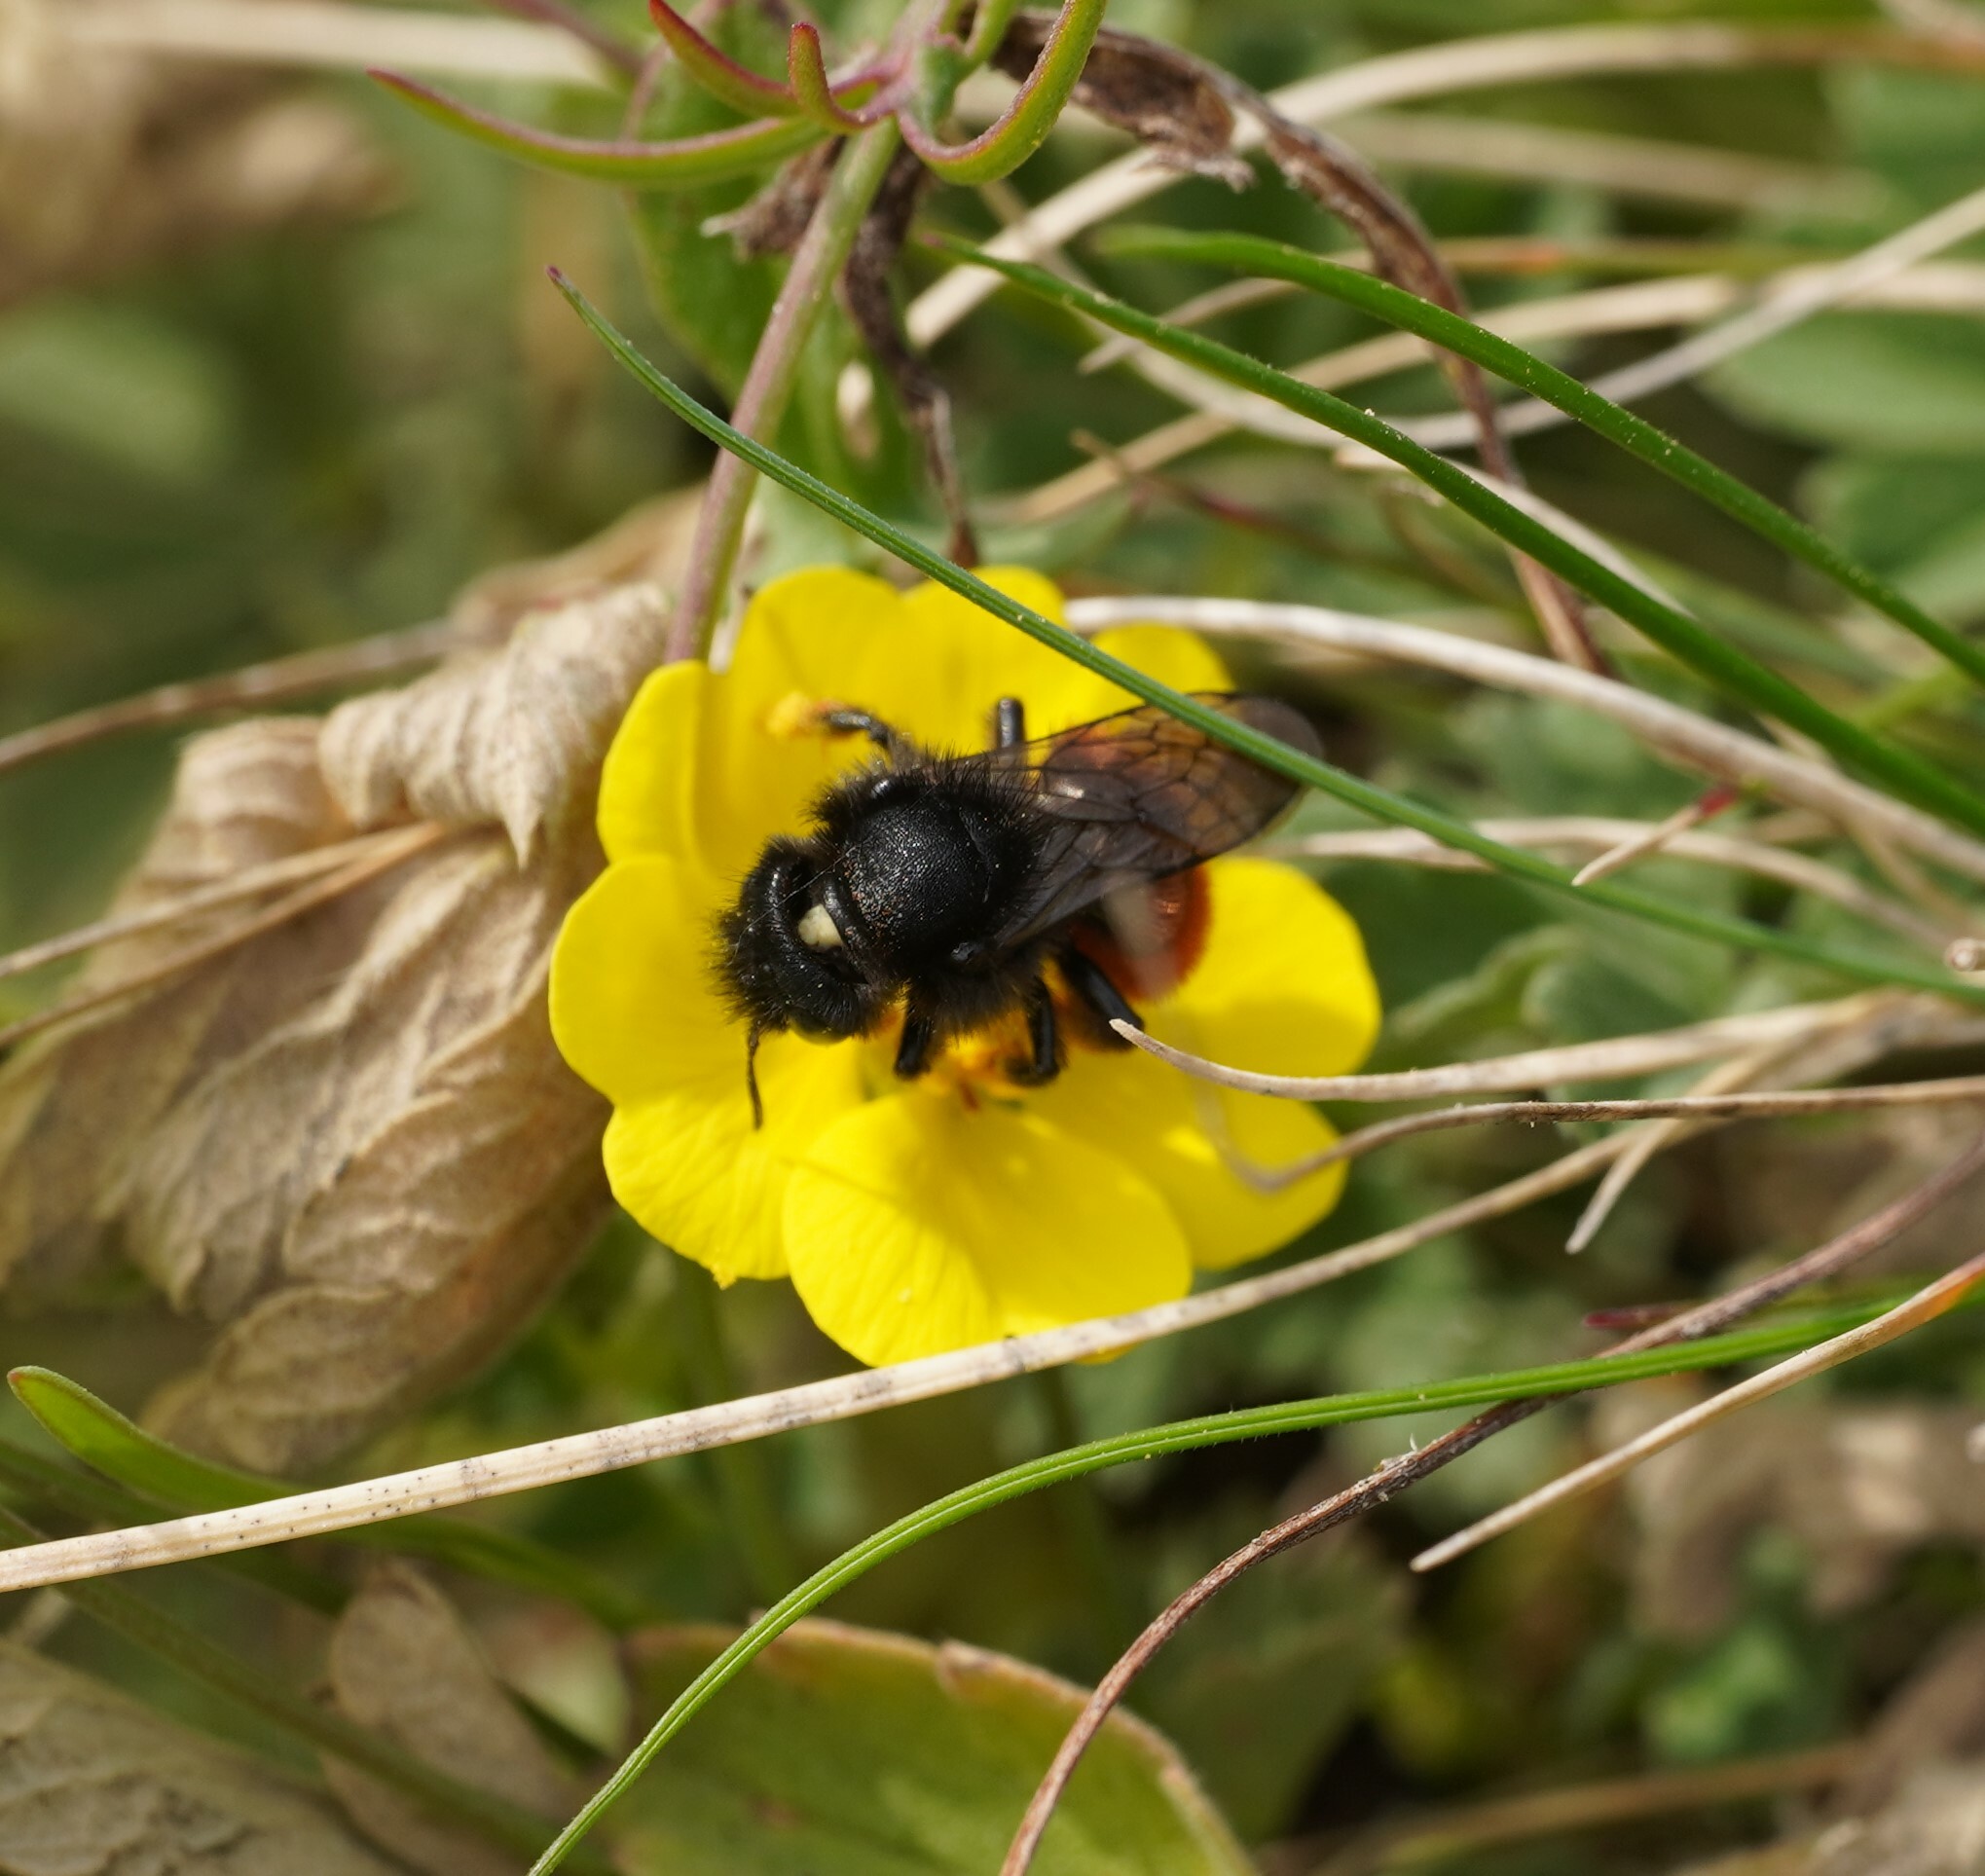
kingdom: Animalia
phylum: Arthropoda
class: Insecta
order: Hymenoptera
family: Megachilidae
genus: Osmia
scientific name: Osmia bicolor
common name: Red-tailed mason bee
